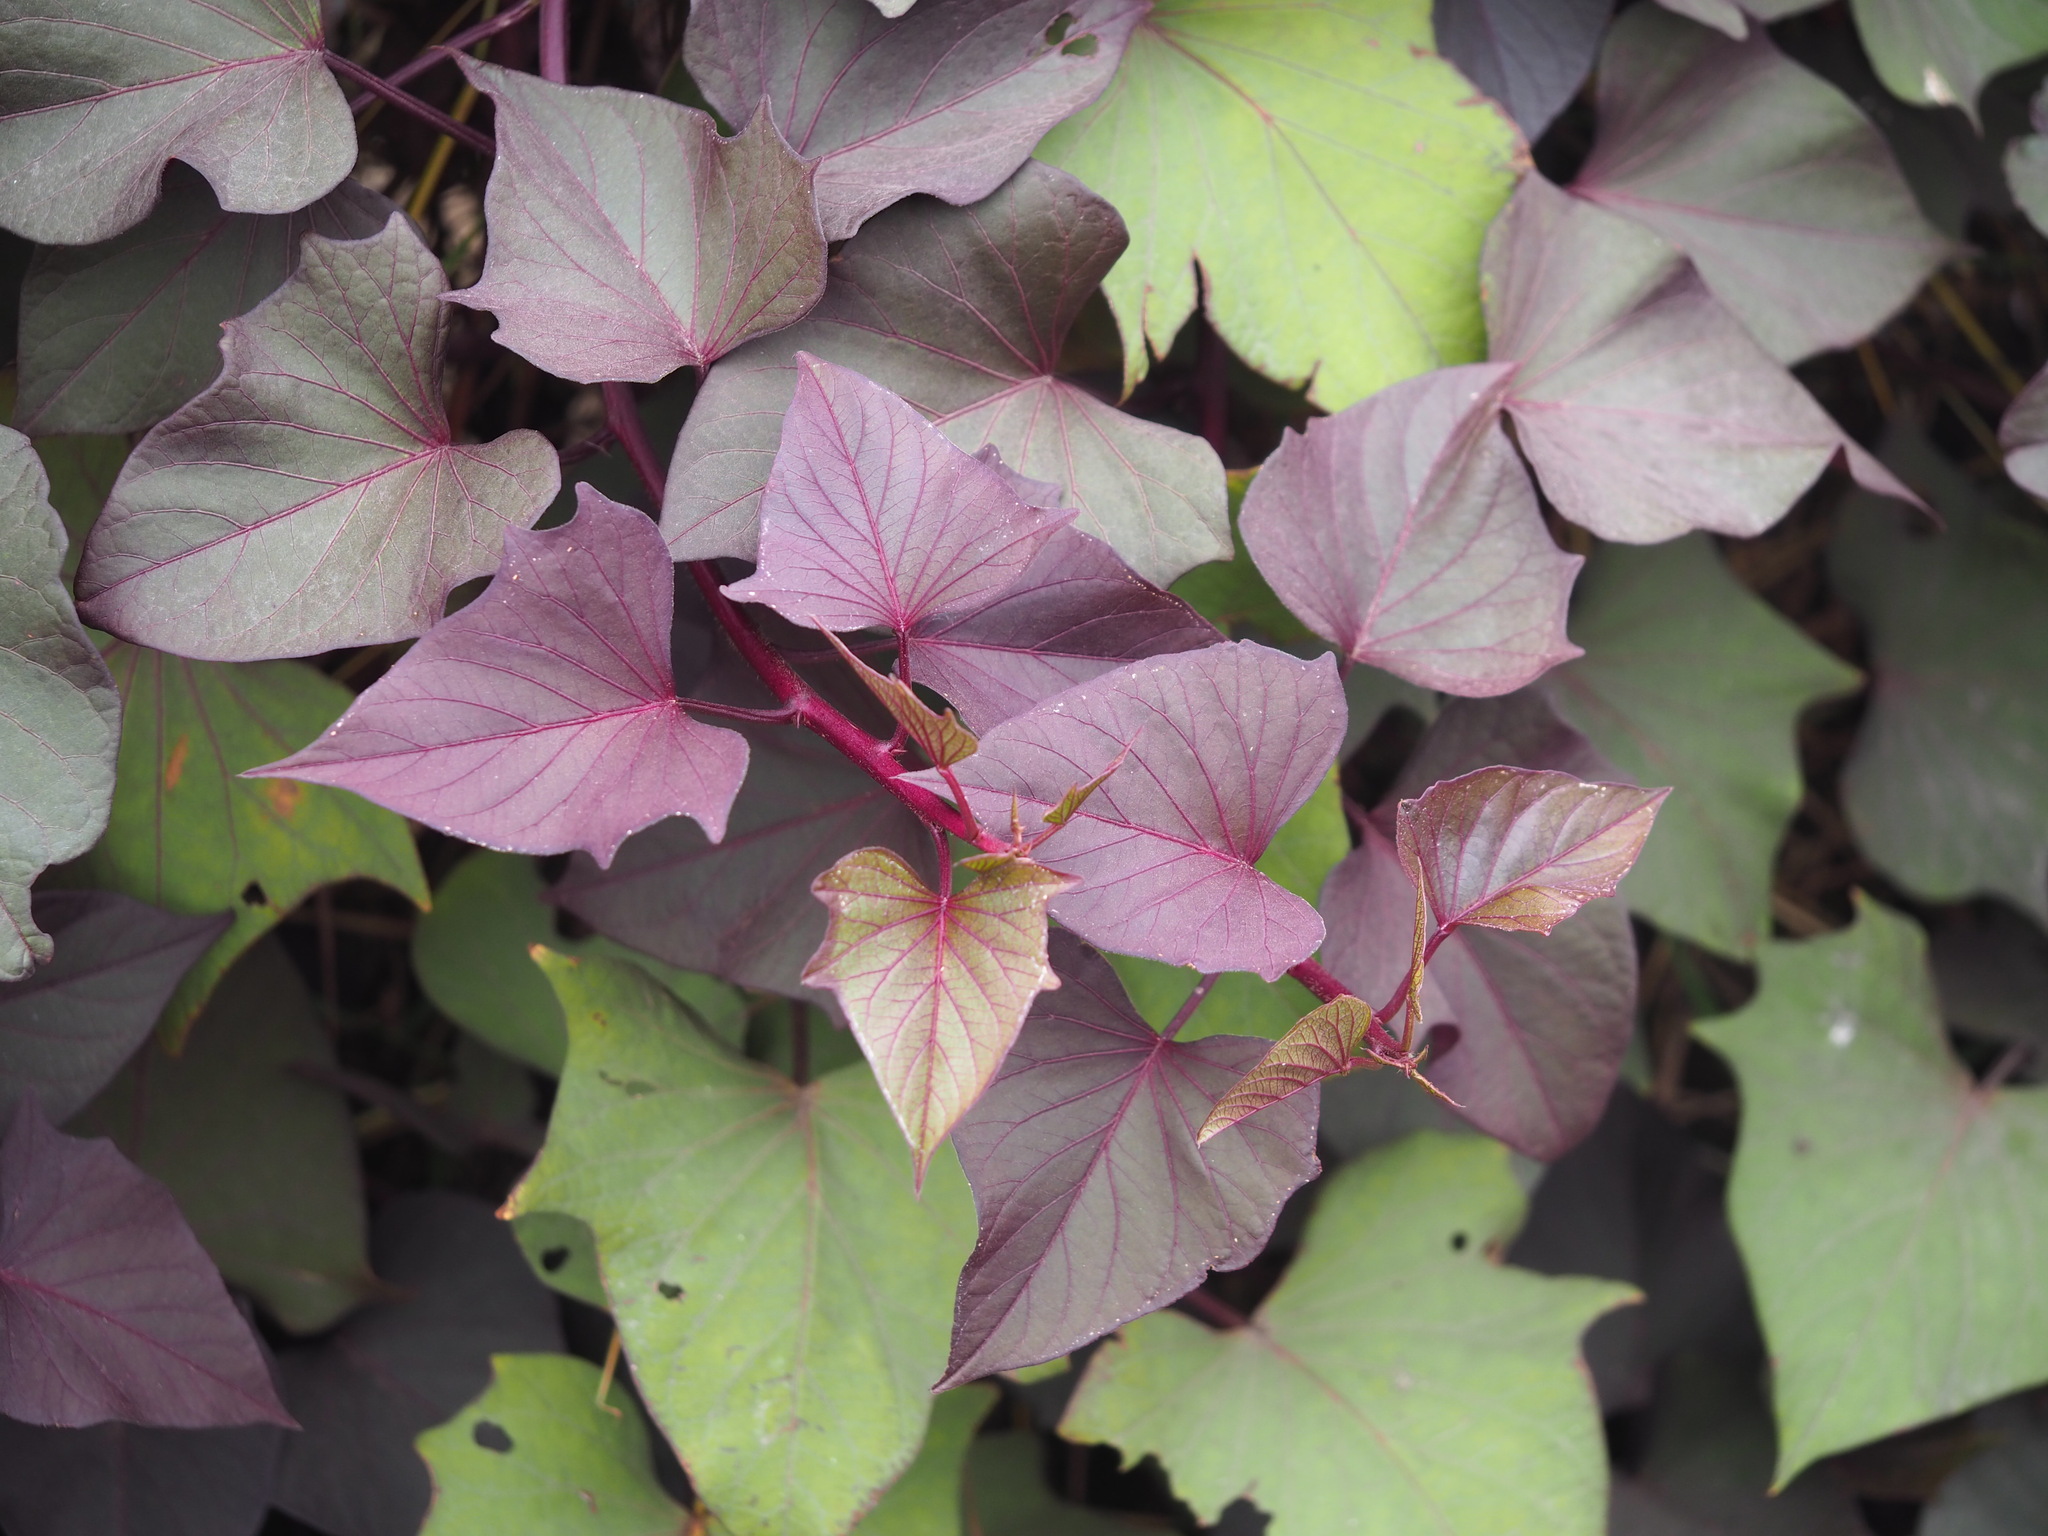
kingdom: Plantae
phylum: Tracheophyta
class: Magnoliopsida
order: Solanales
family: Convolvulaceae
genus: Ipomoea
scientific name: Ipomoea batatas
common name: Sweet-potato
